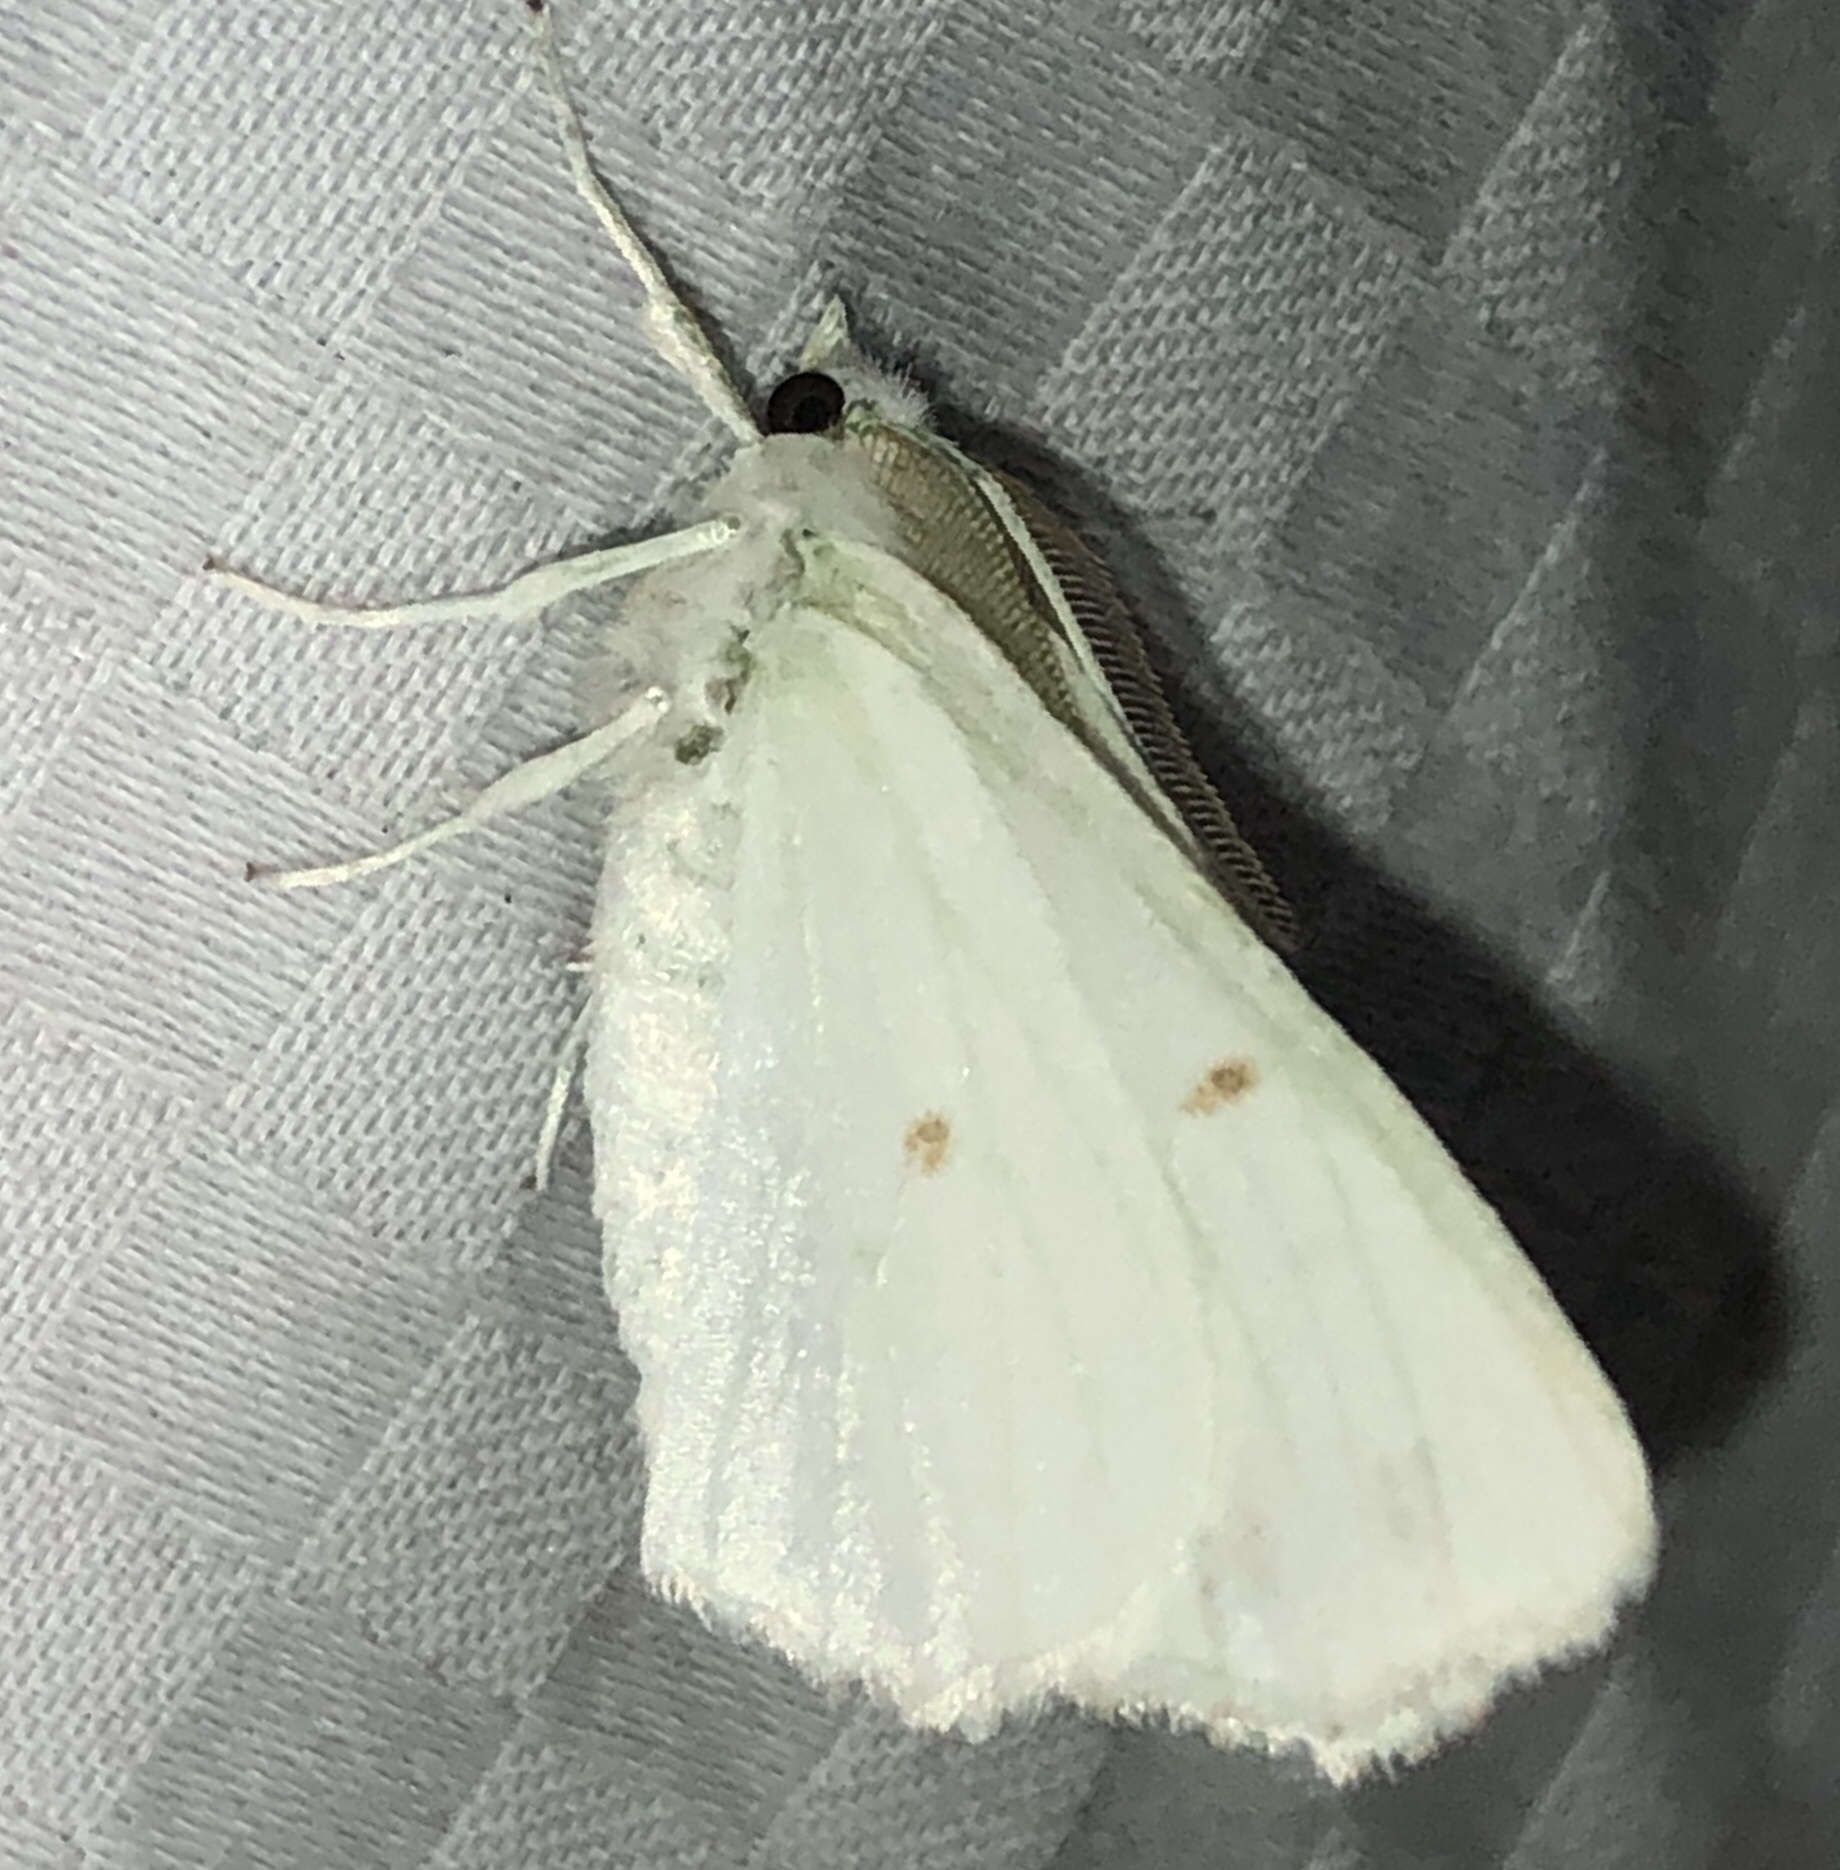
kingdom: Animalia
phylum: Arthropoda
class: Insecta
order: Lepidoptera
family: Geometridae
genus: Ennomos
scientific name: Ennomos subsignaria
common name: Elm spanworm
